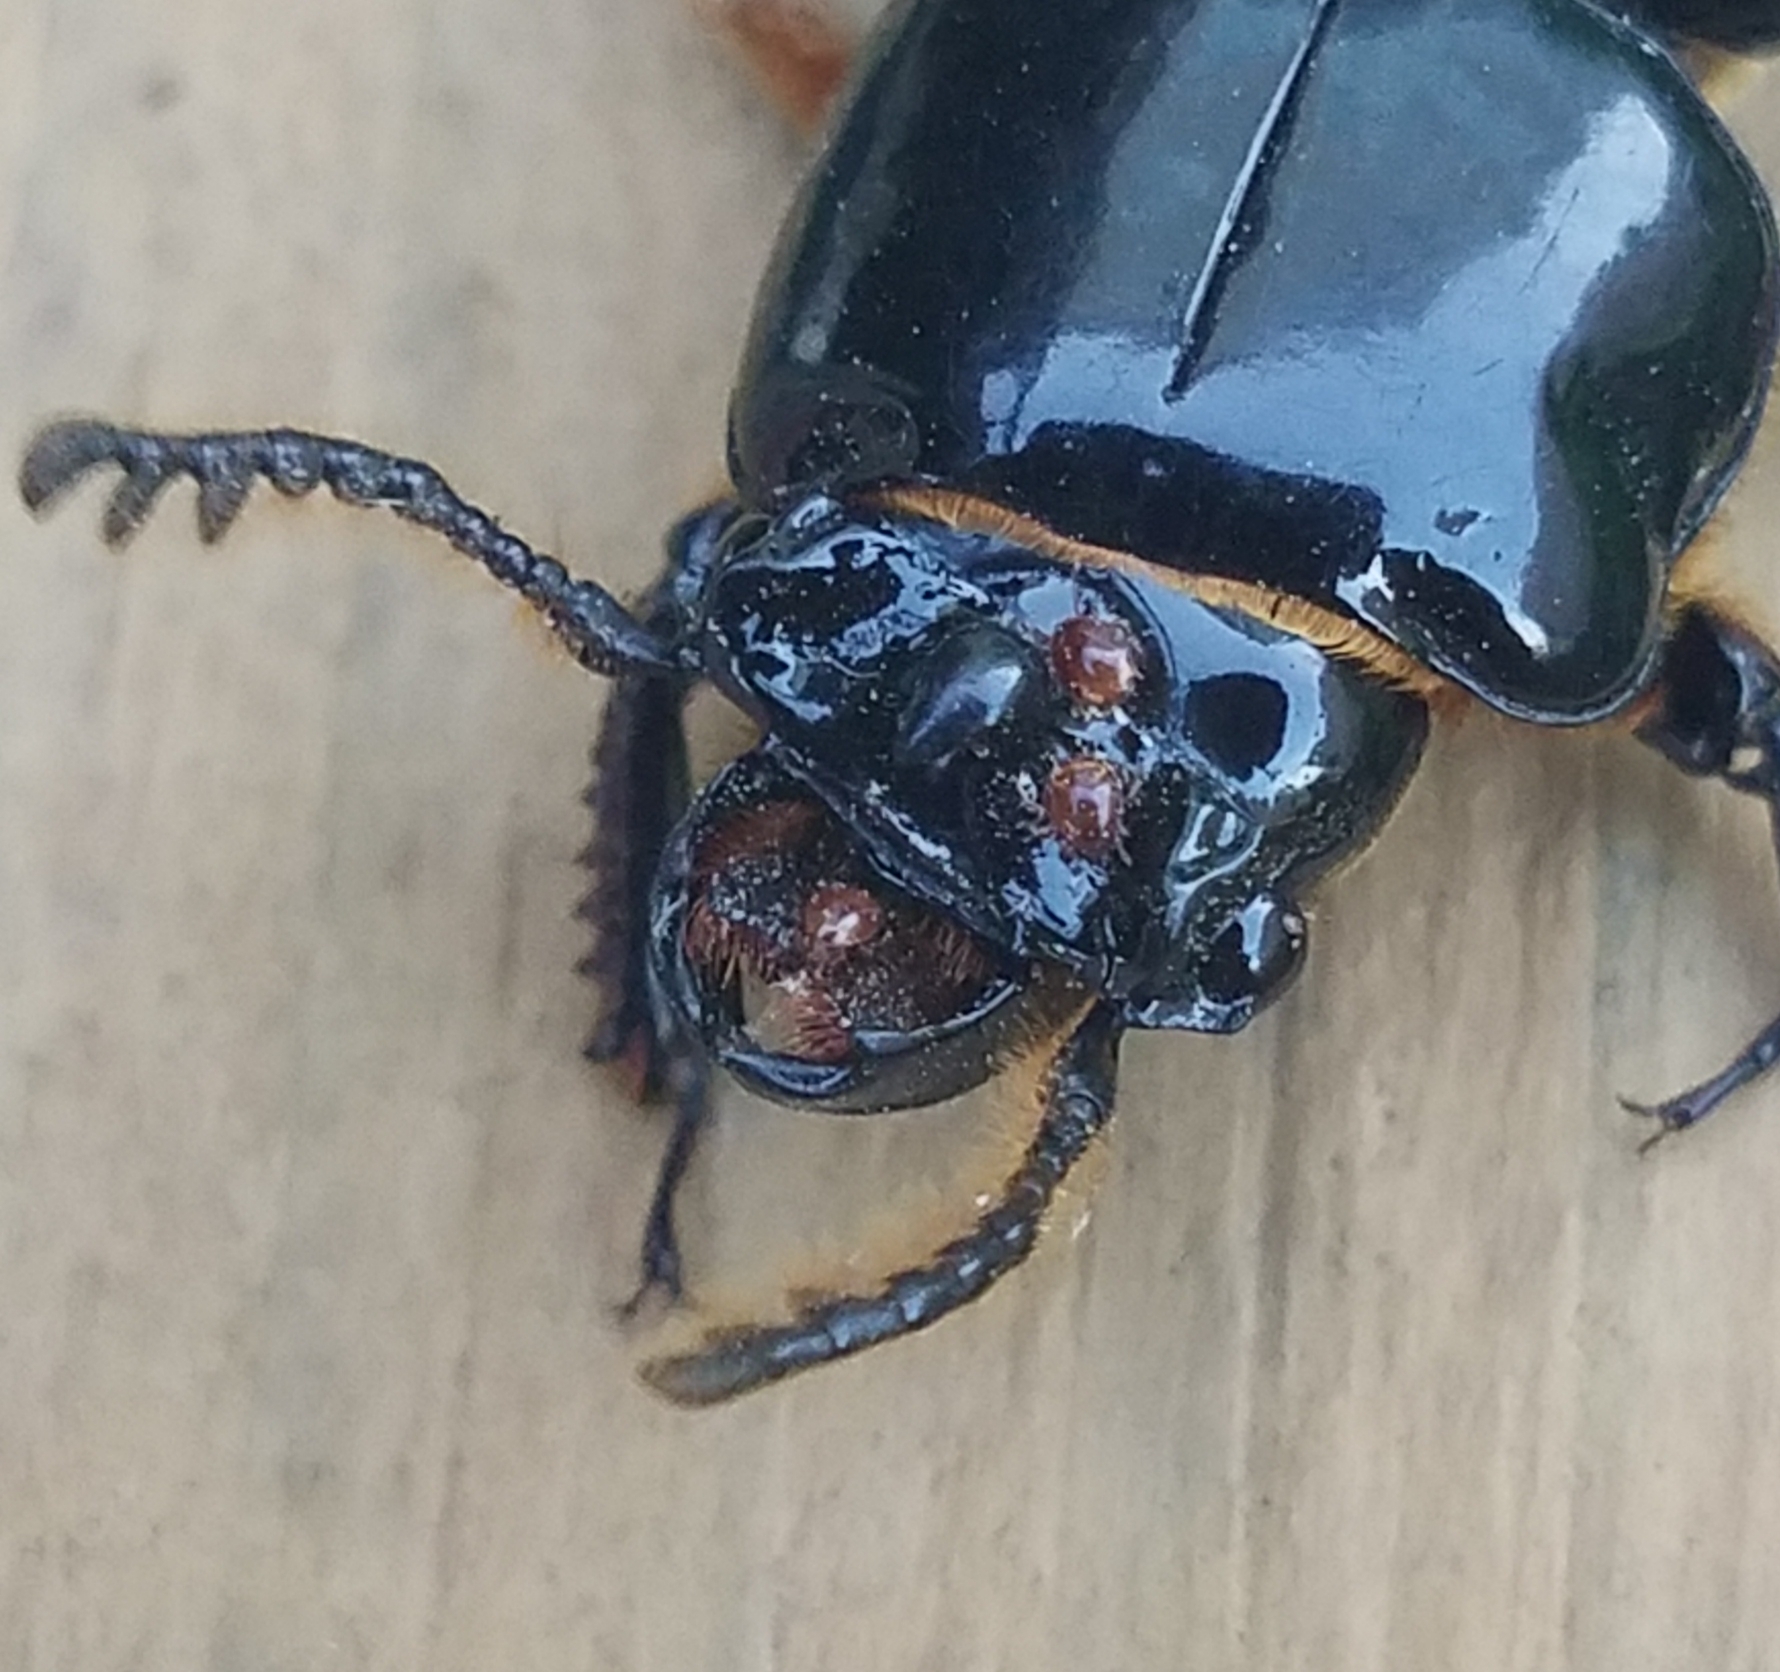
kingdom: Animalia
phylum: Arthropoda
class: Insecta
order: Coleoptera
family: Passalidae
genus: Odontotaenius
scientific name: Odontotaenius disjunctus
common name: Patent leather beetle
